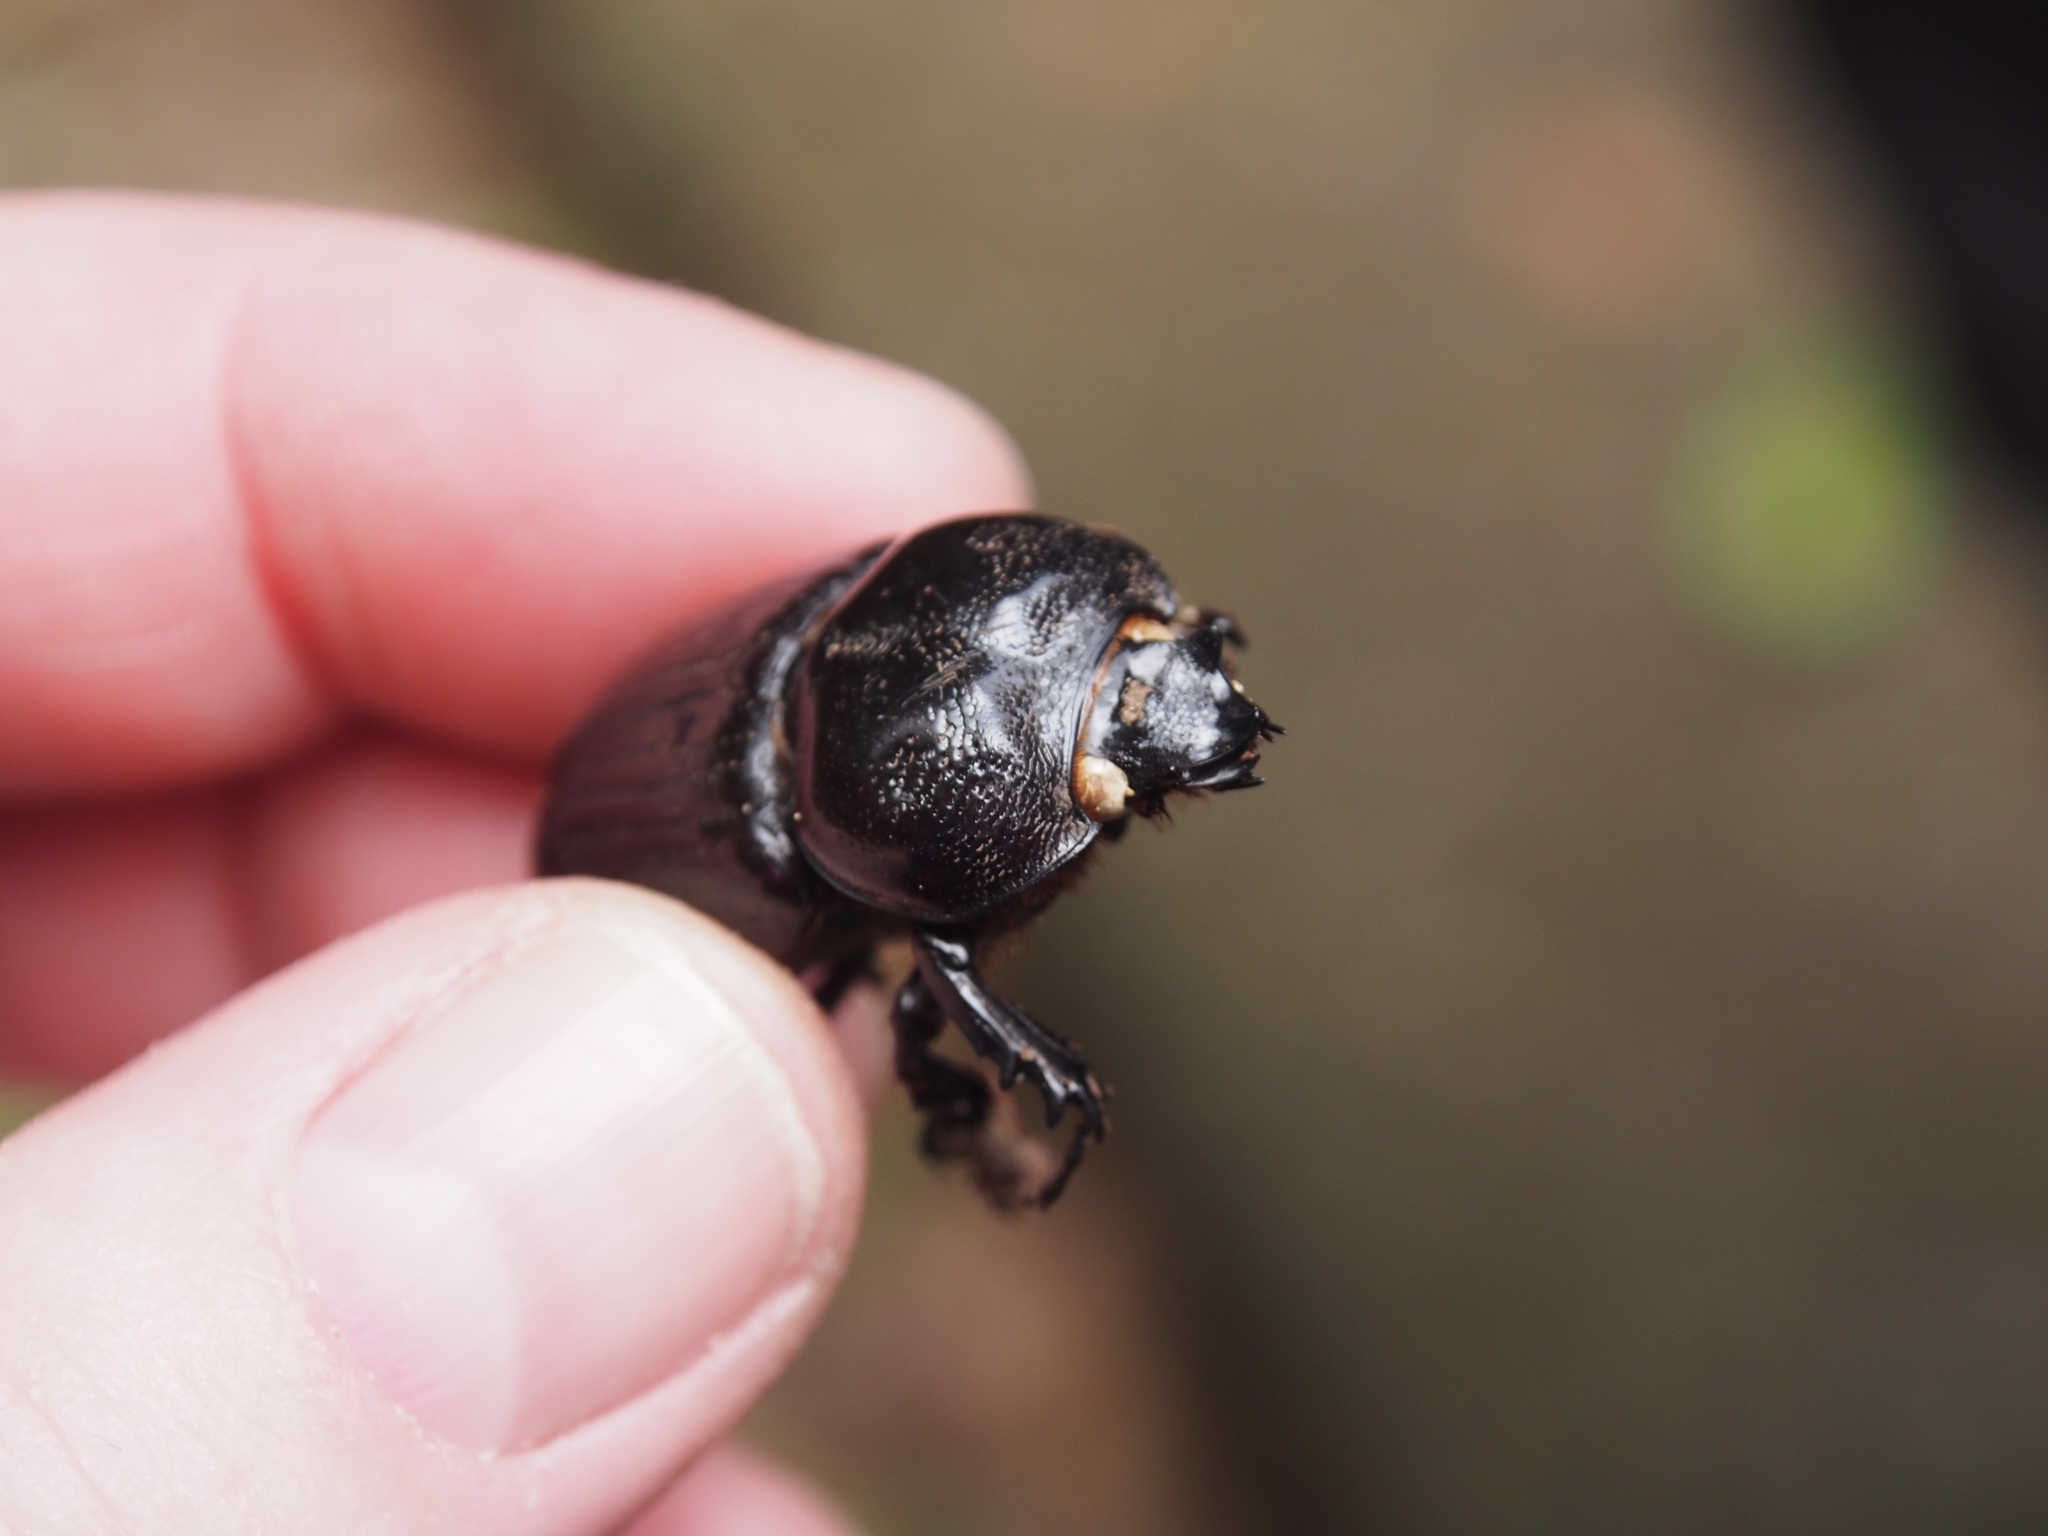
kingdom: Animalia
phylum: Arthropoda
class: Insecta
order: Coleoptera
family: Scarabaeidae
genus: Phileurus
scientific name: Phileurus didymus
